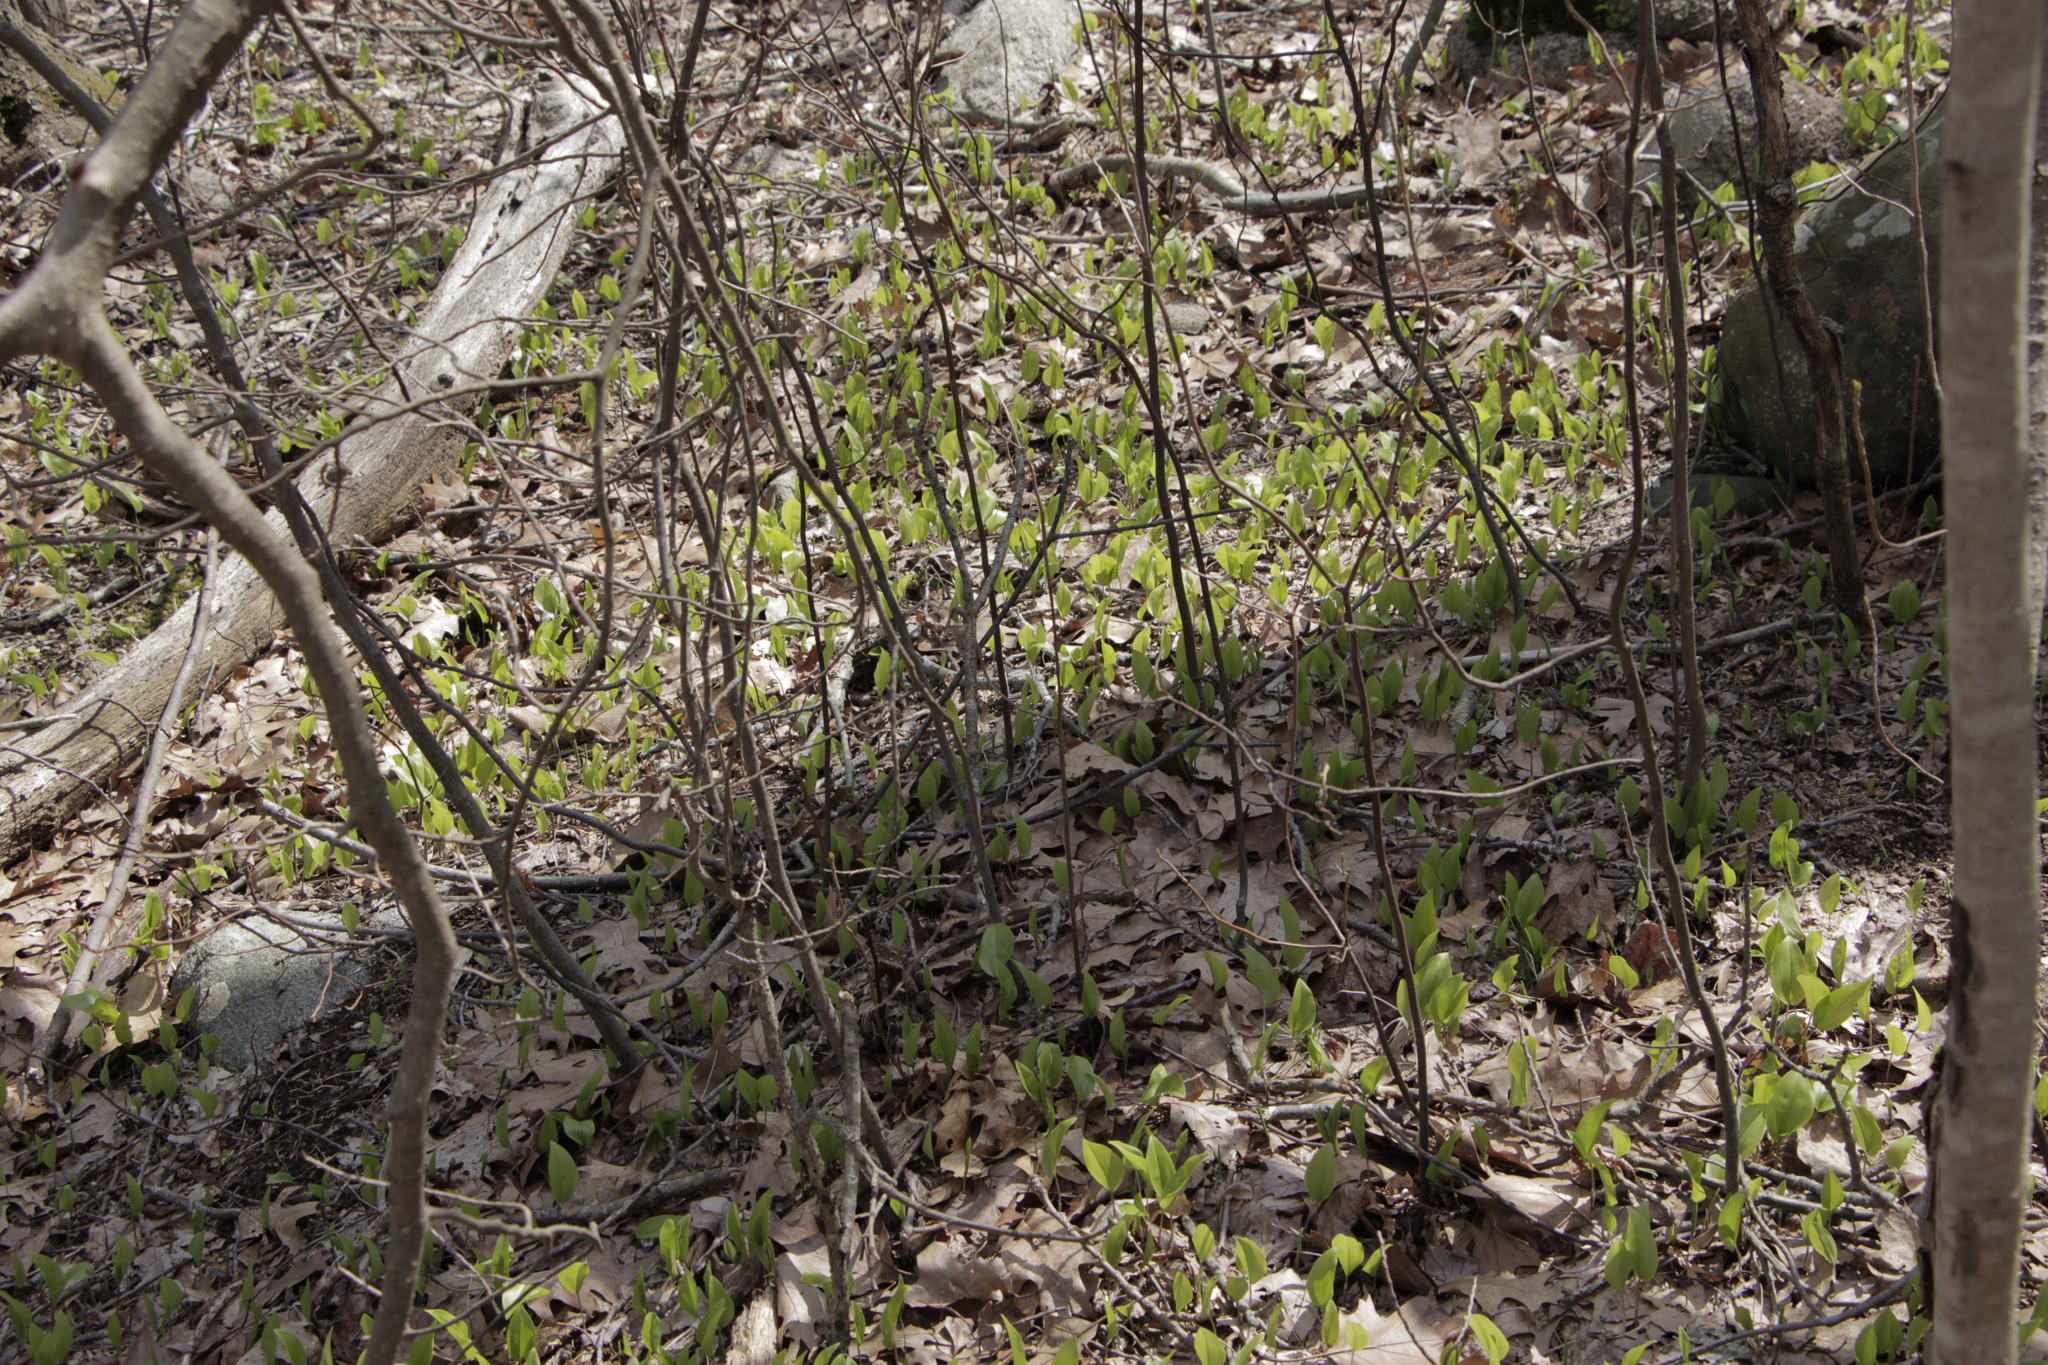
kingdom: Plantae
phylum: Tracheophyta
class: Liliopsida
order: Asparagales
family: Asparagaceae
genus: Maianthemum
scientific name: Maianthemum canadense
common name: False lily-of-the-valley
